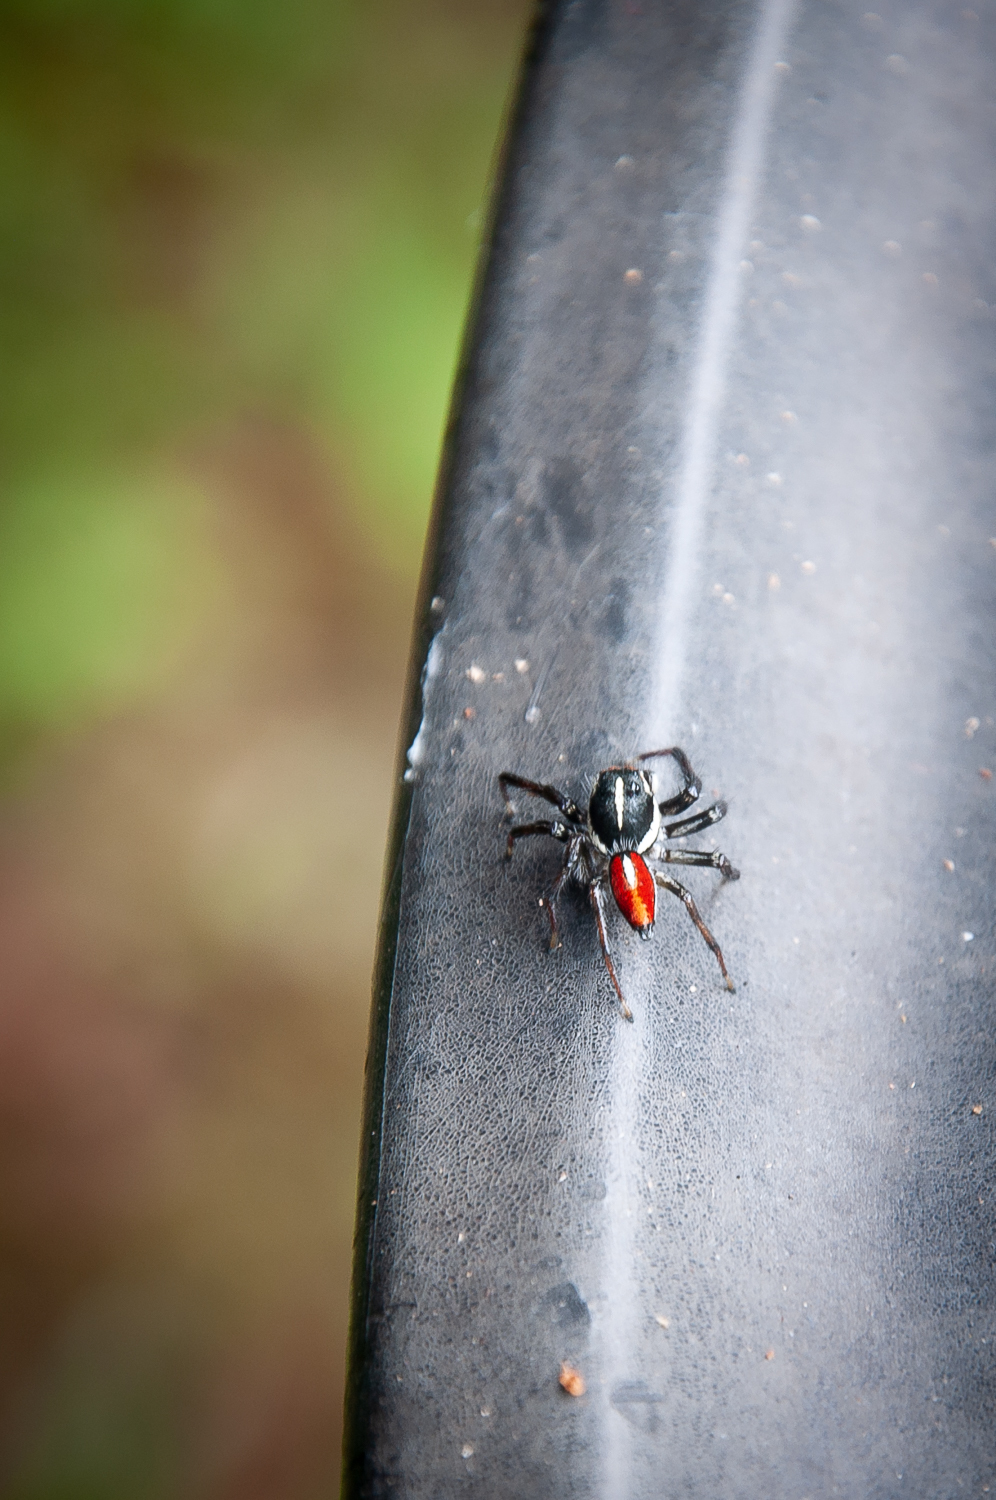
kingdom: Animalia
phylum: Arthropoda
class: Arachnida
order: Araneae
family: Salticidae
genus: Frigga
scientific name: Frigga pratensis
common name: Jumping spiders
